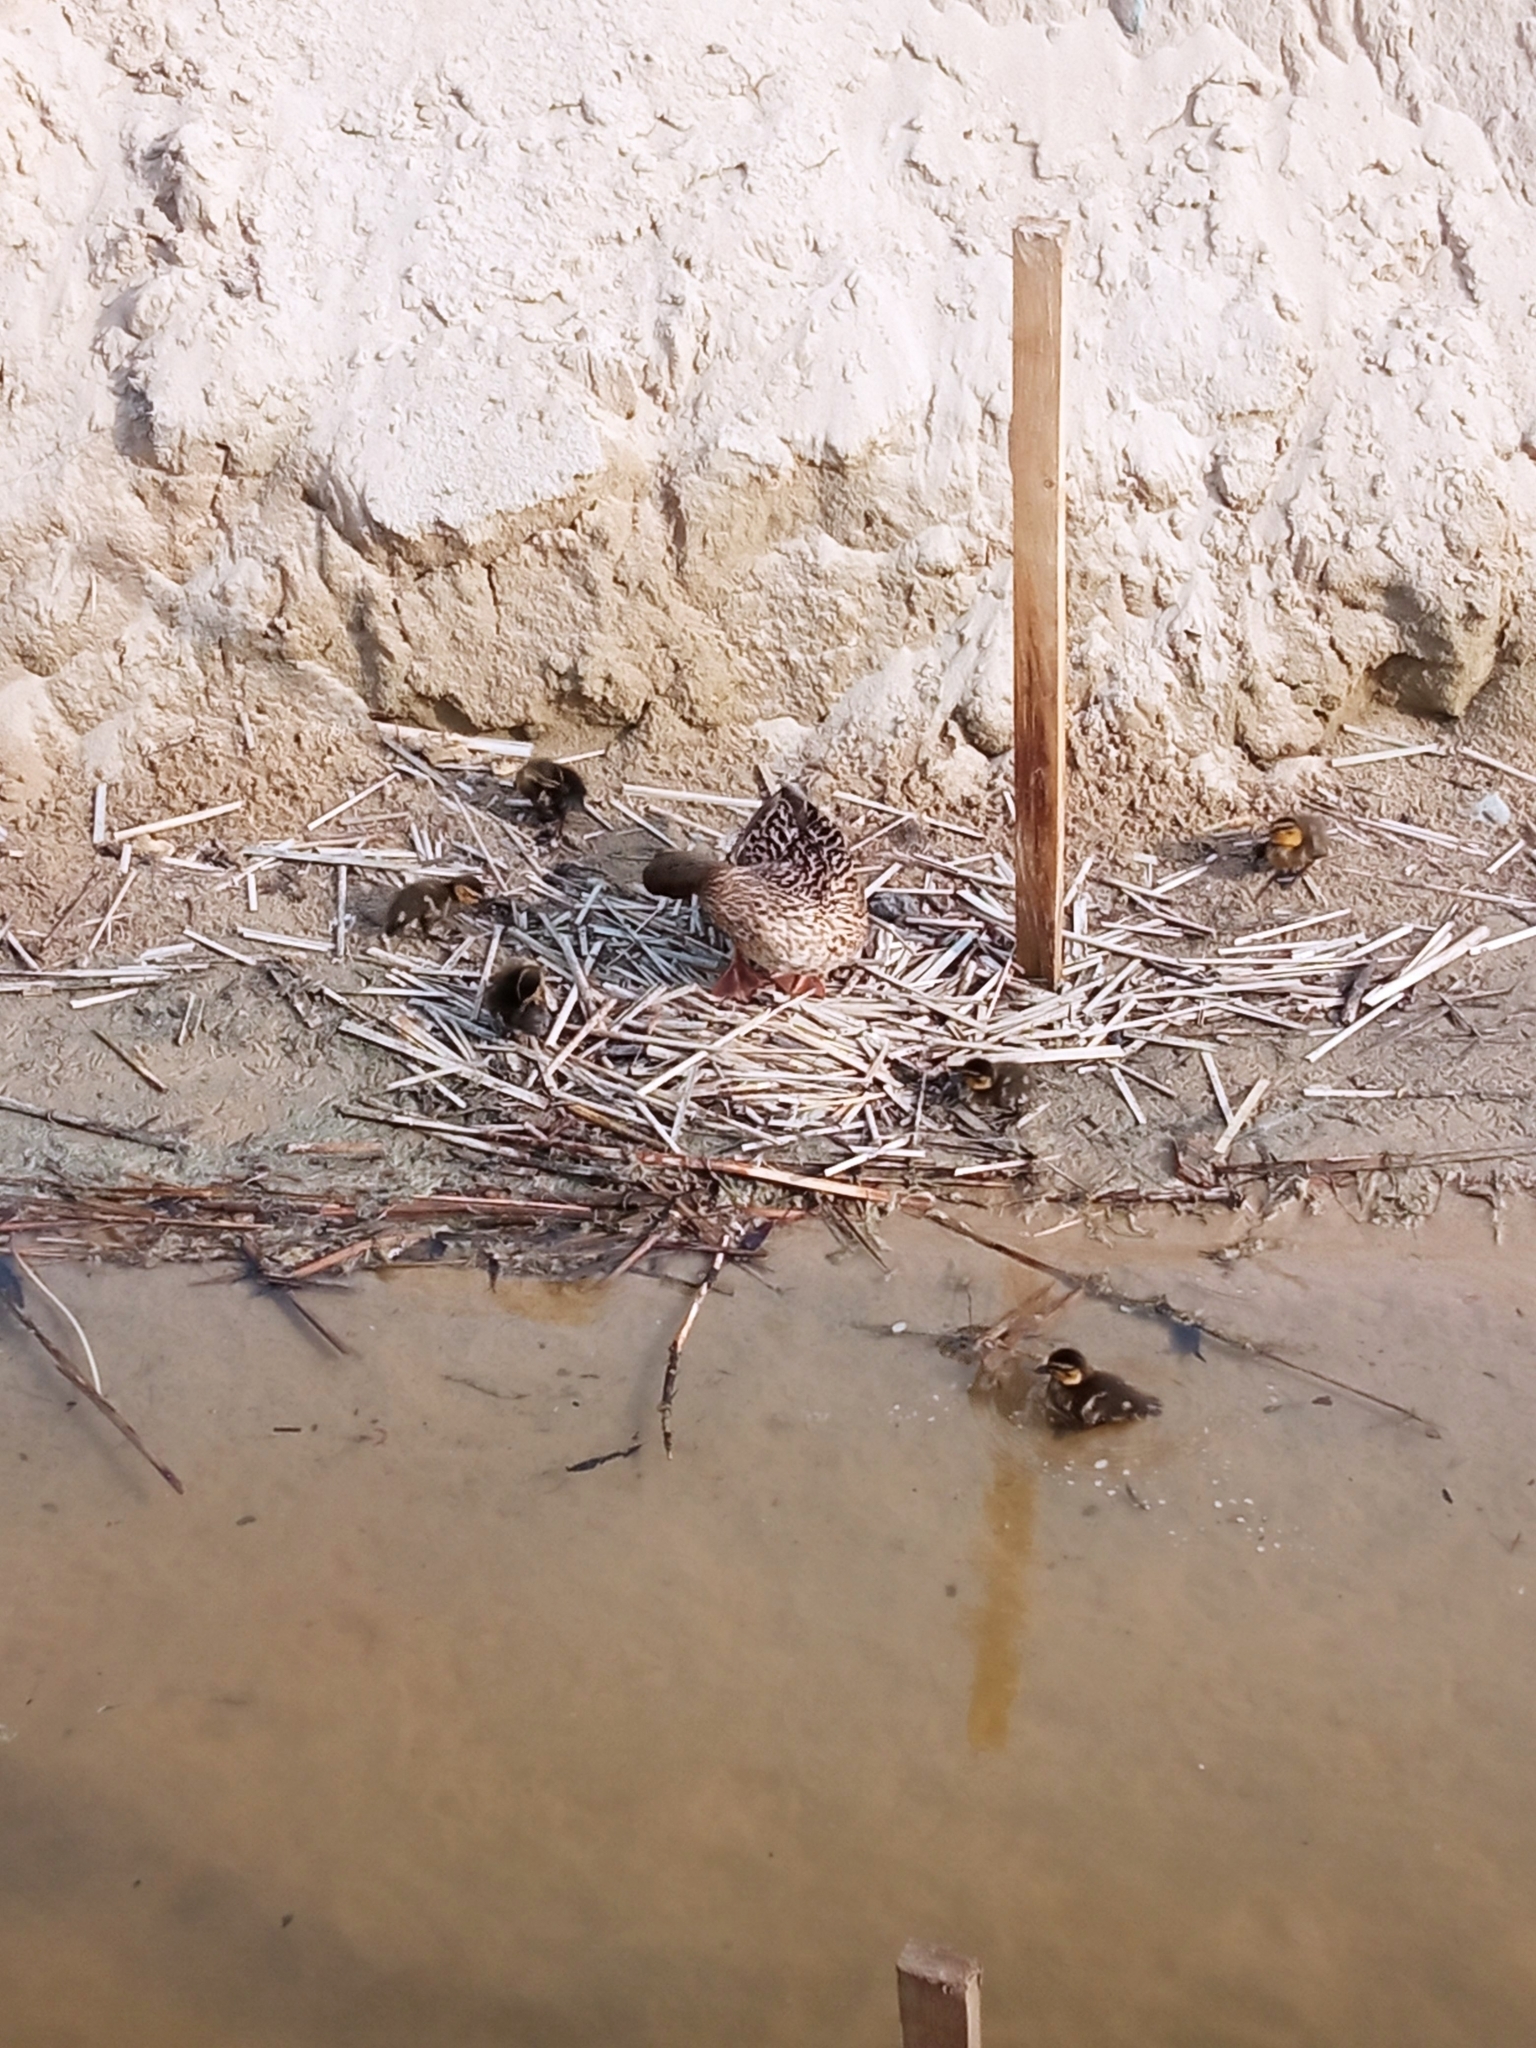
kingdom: Animalia
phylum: Chordata
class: Aves
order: Anseriformes
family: Anatidae
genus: Anas
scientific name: Anas platyrhynchos
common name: Mallard
